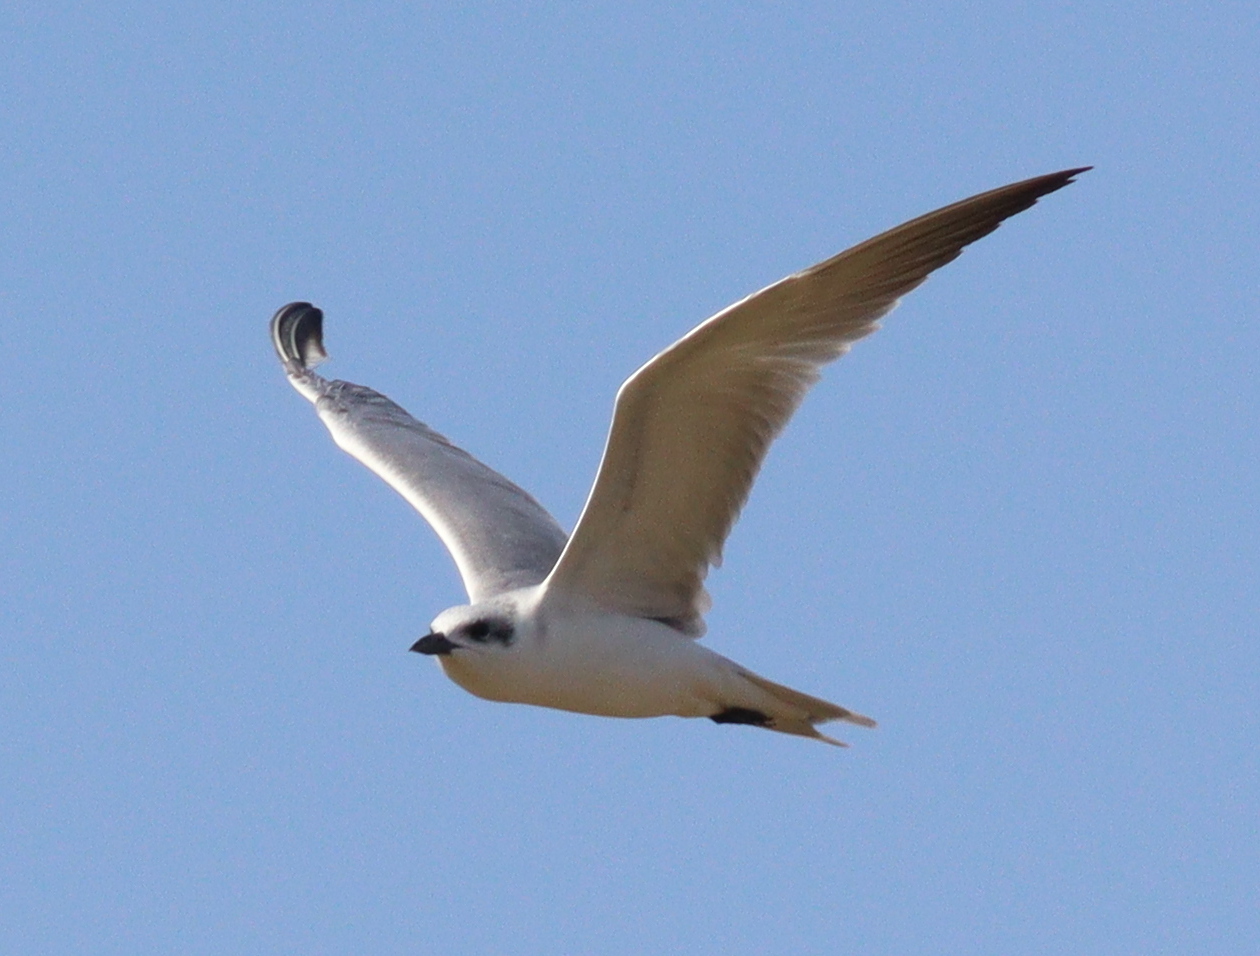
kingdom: Animalia
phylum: Chordata
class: Aves
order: Charadriiformes
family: Laridae
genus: Gelochelidon
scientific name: Gelochelidon nilotica
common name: Gull-billed tern
